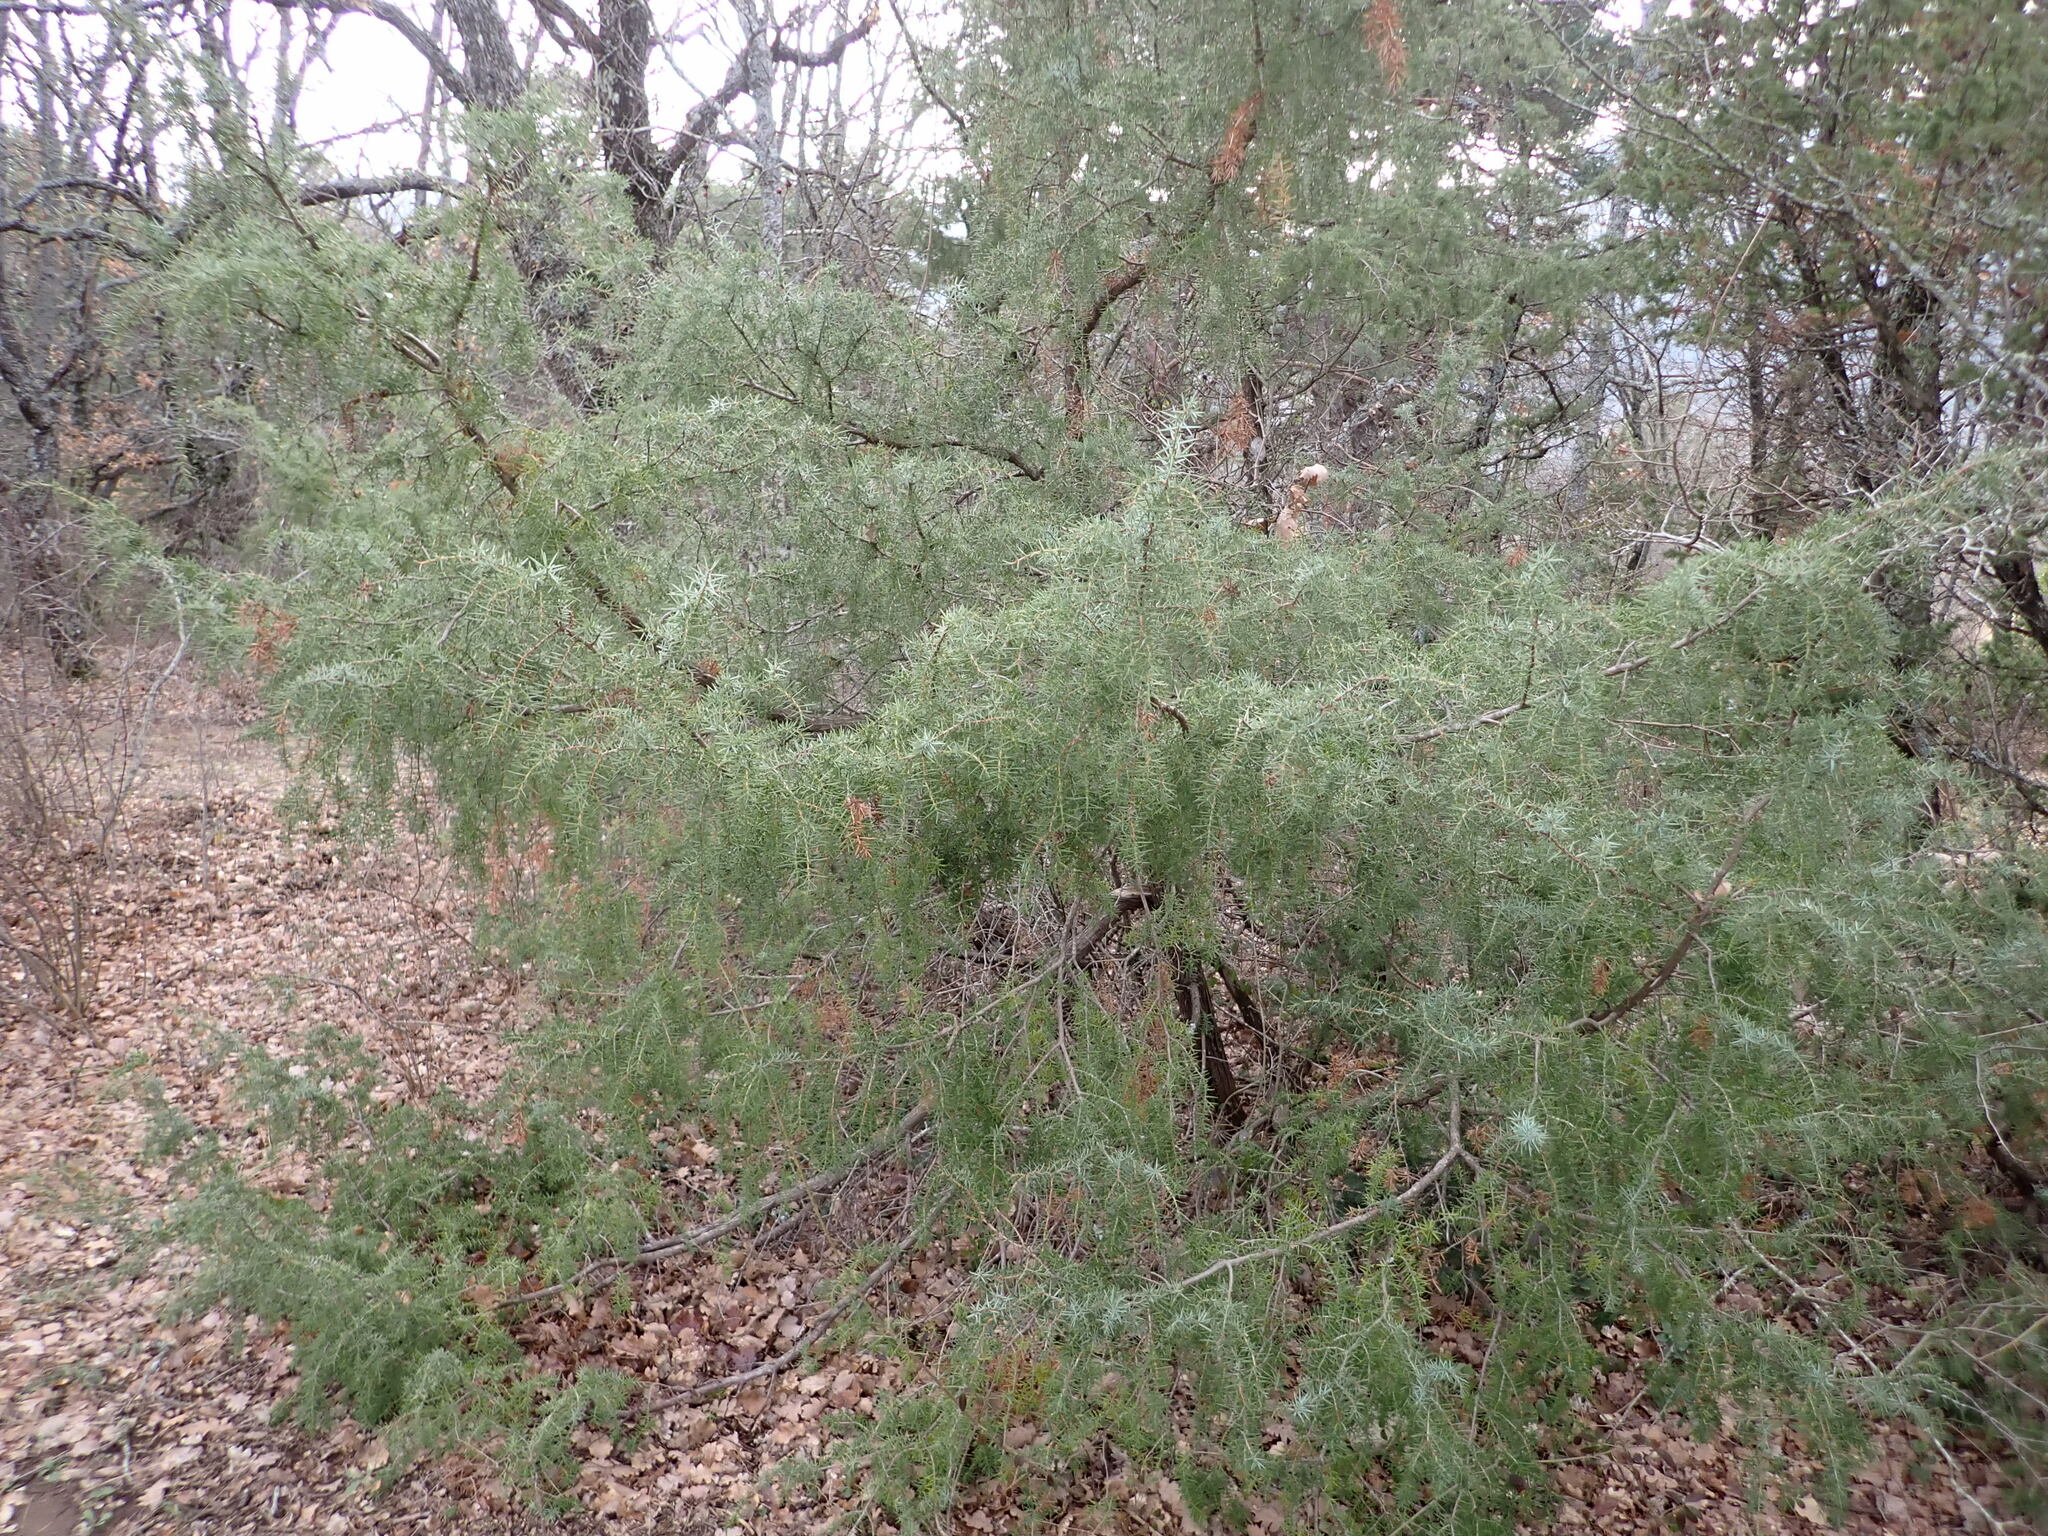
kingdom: Plantae
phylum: Tracheophyta
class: Pinopsida
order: Pinales
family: Cupressaceae
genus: Juniperus
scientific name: Juniperus communis
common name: Common juniper
